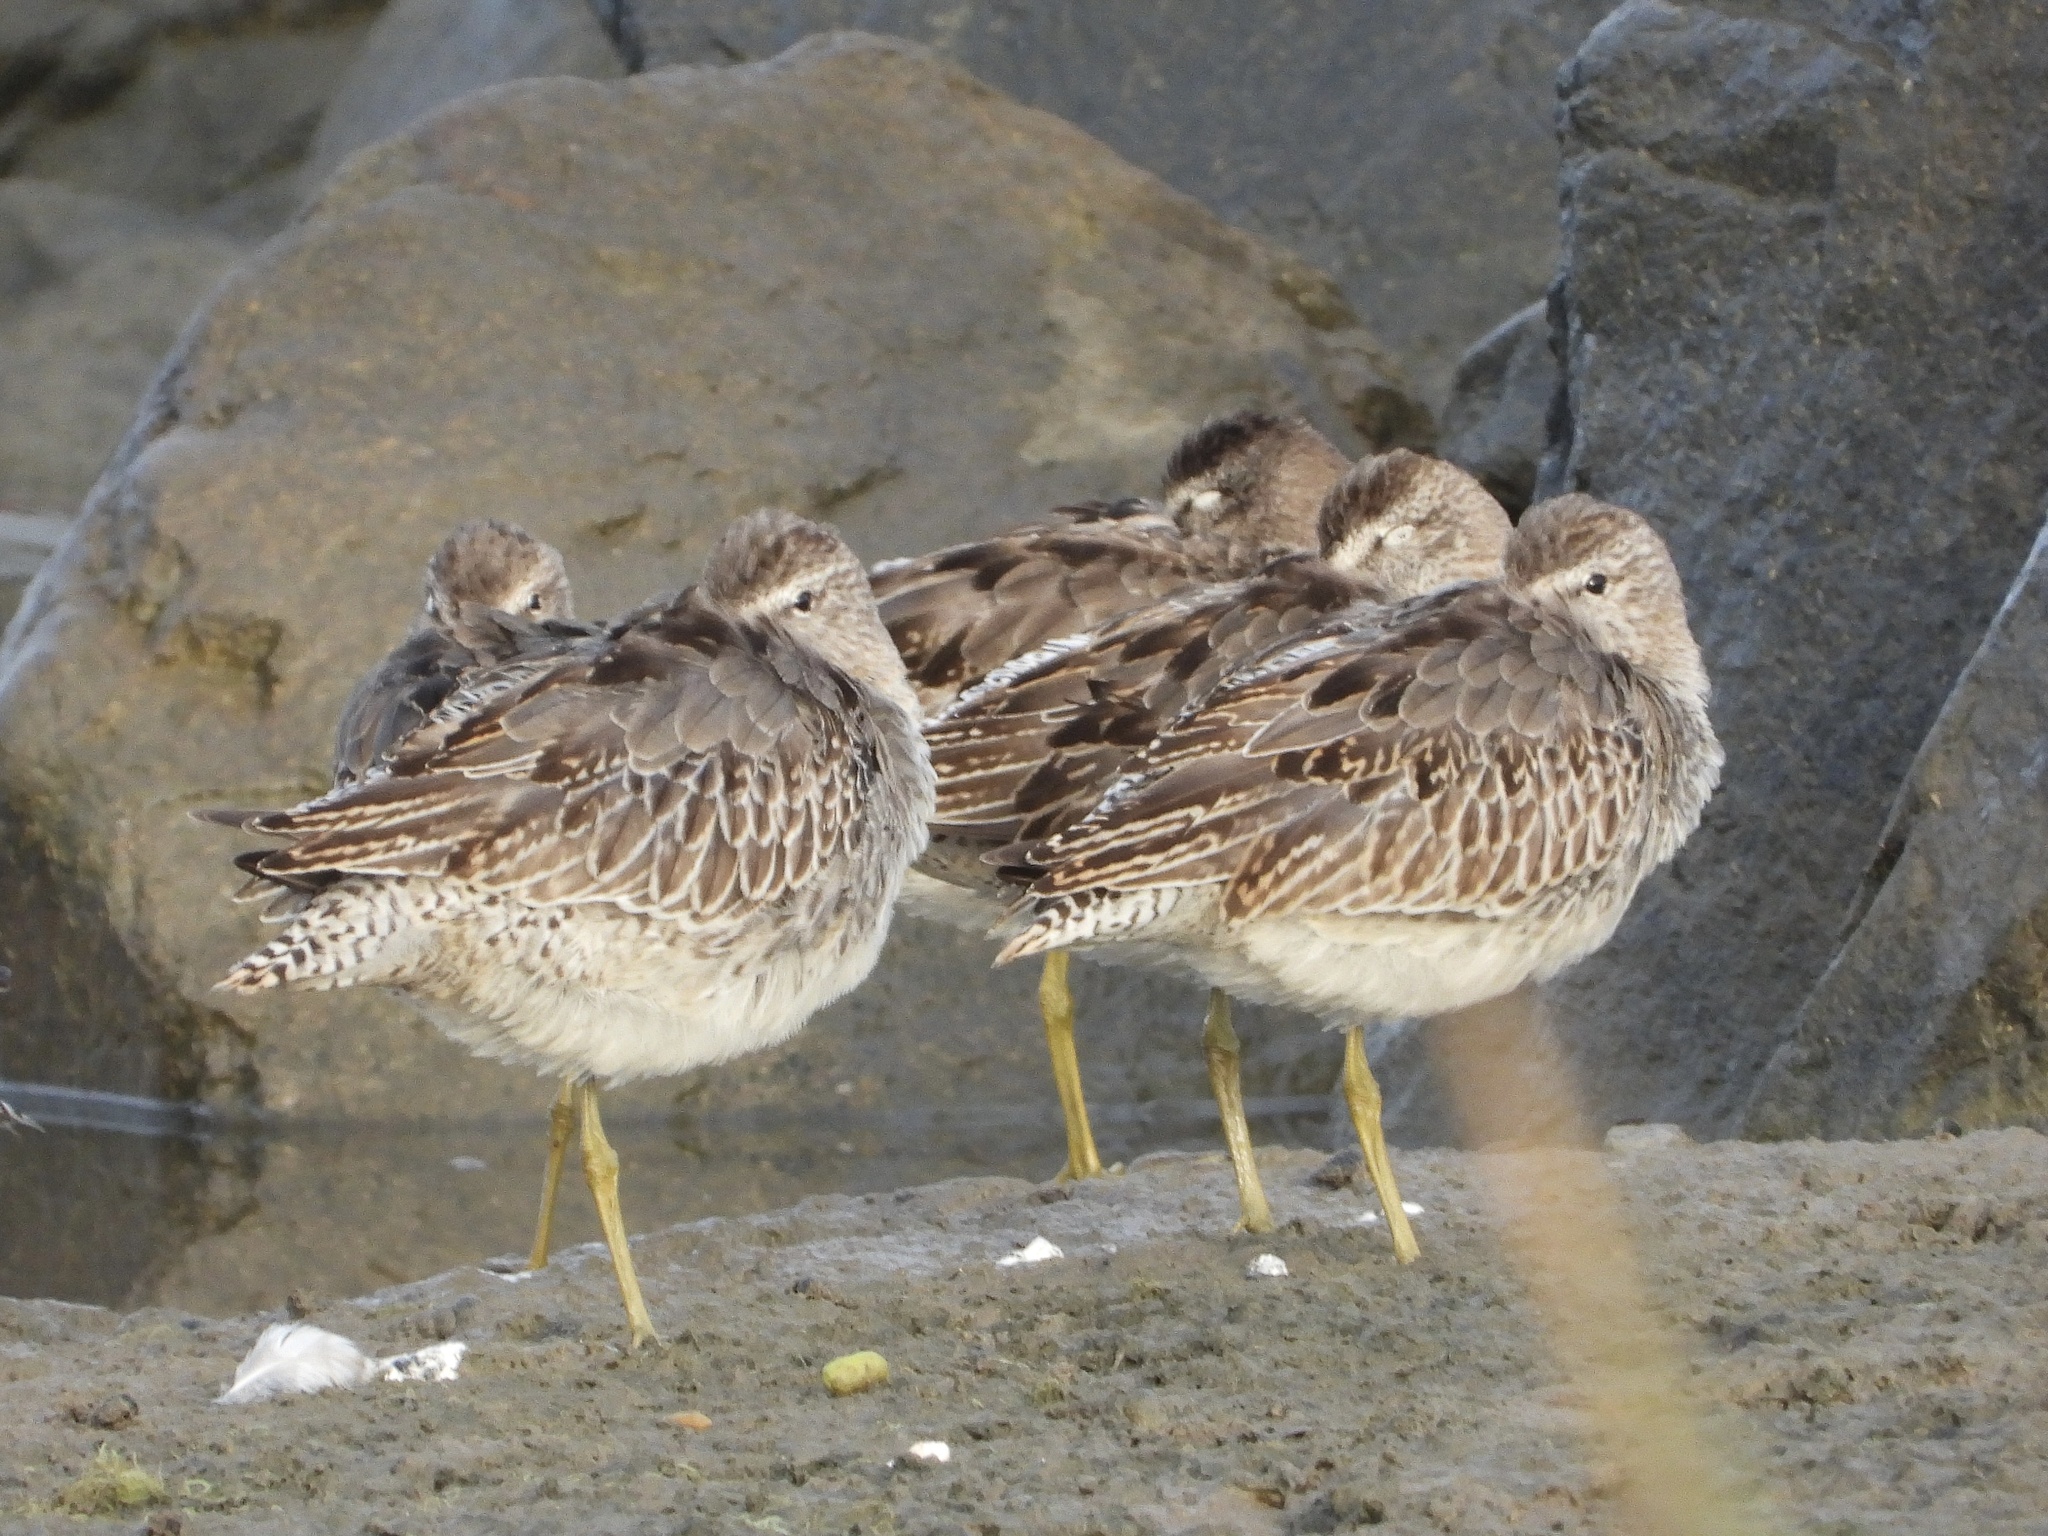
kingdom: Animalia
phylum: Chordata
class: Aves
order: Charadriiformes
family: Scolopacidae
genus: Limnodromus
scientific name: Limnodromus griseus
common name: Short-billed dowitcher
